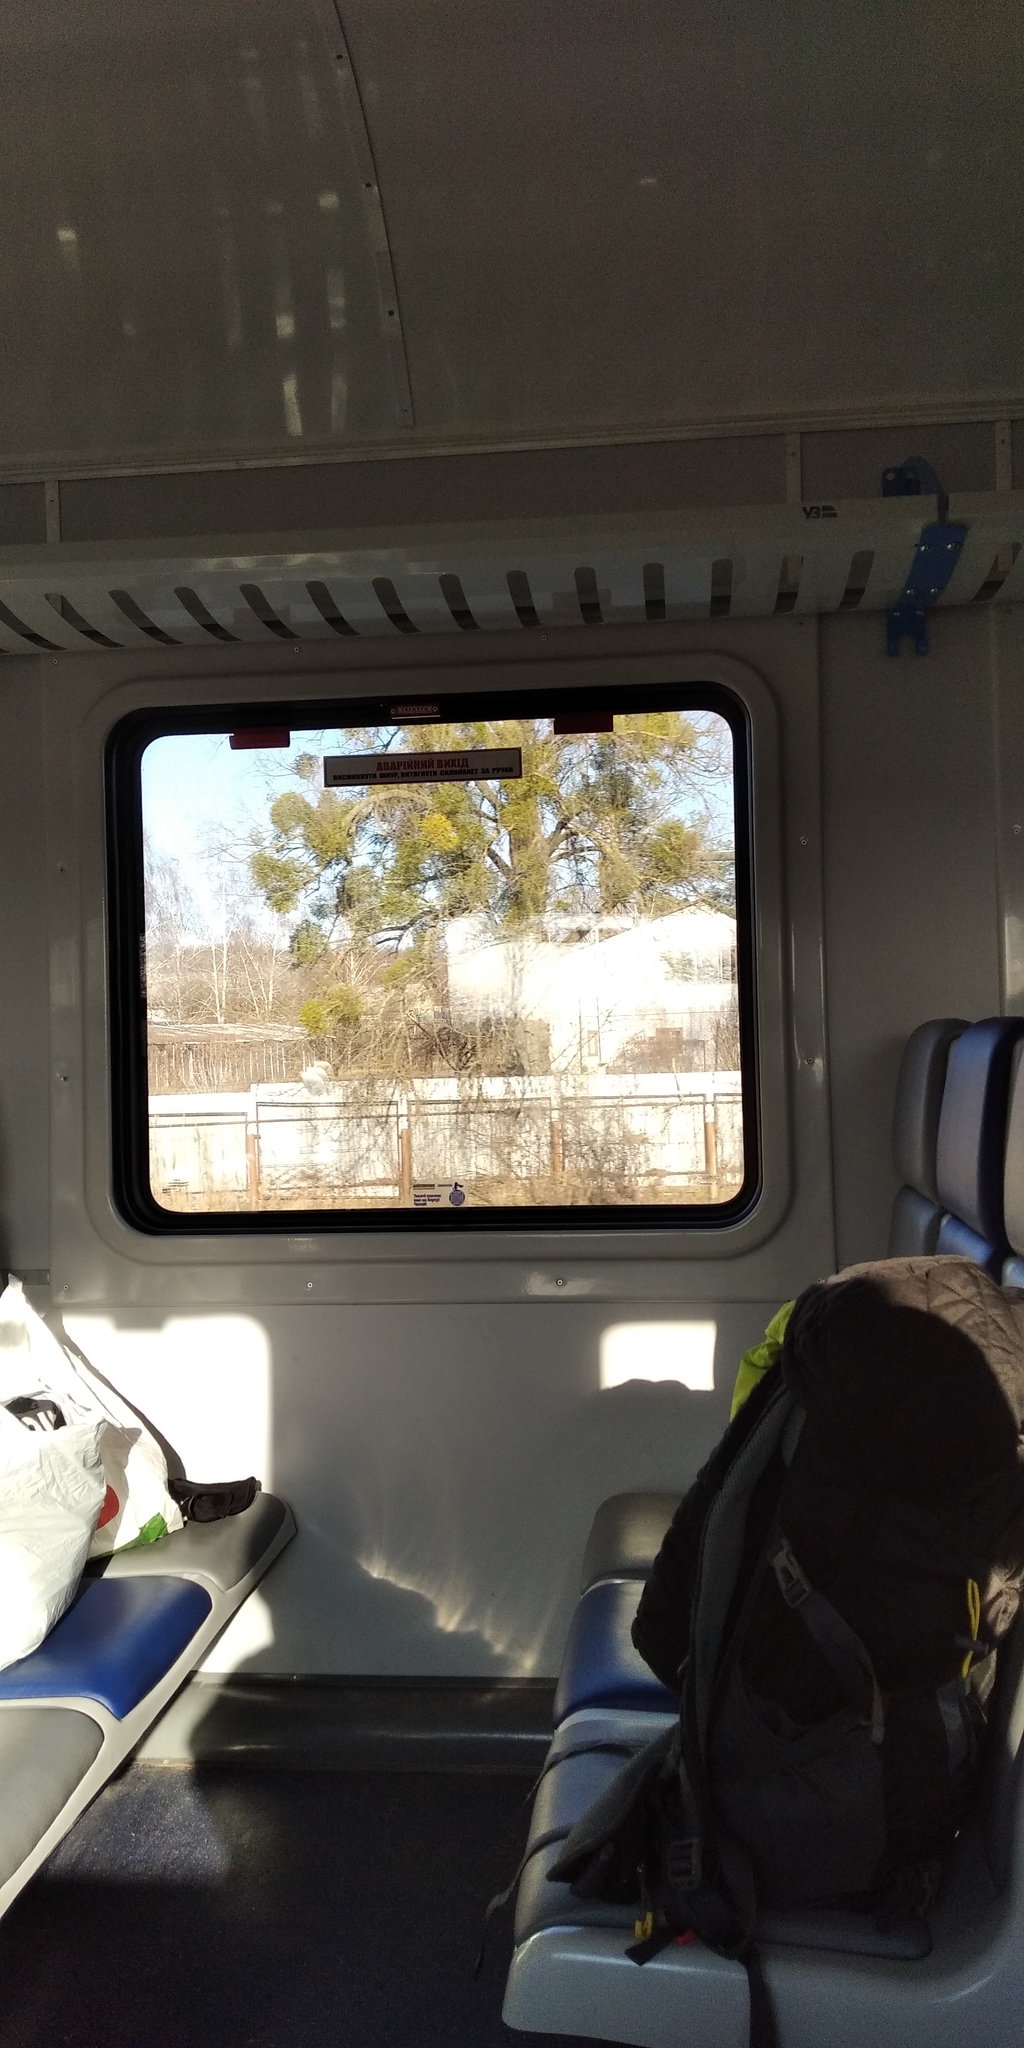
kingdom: Plantae
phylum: Tracheophyta
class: Magnoliopsida
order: Santalales
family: Viscaceae
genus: Viscum
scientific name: Viscum album
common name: Mistletoe
